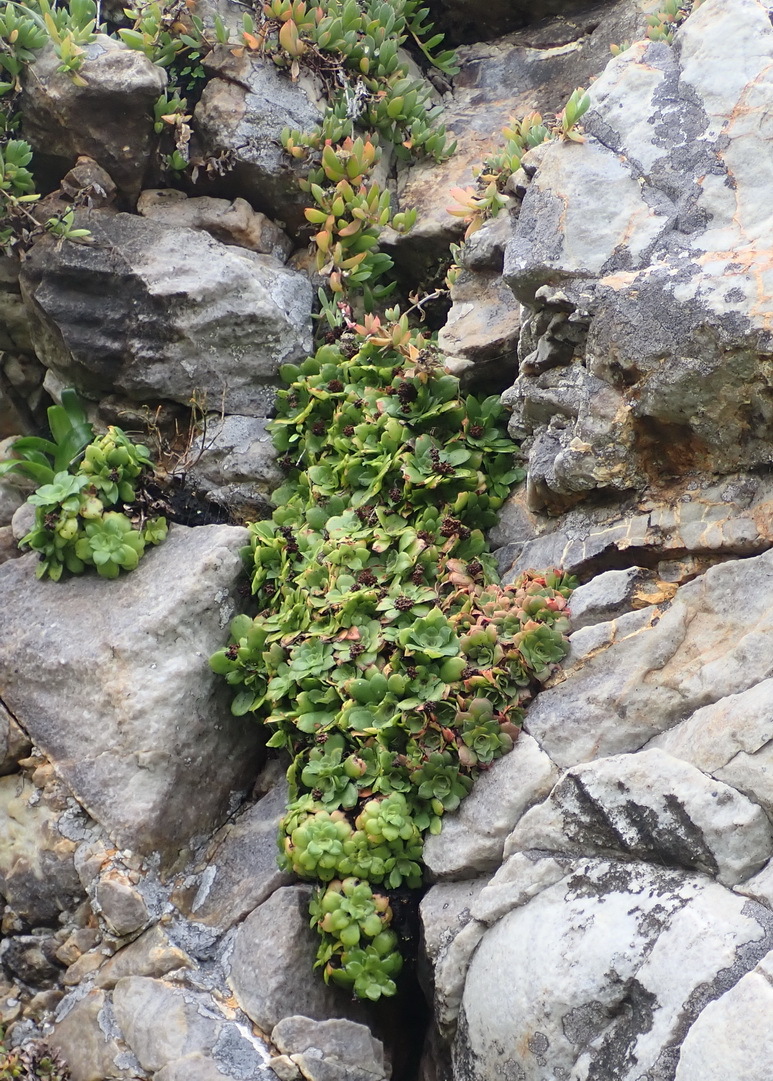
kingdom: Plantae
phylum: Tracheophyta
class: Magnoliopsida
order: Saxifragales
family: Crassulaceae
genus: Crassula
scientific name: Crassula orbicularis
